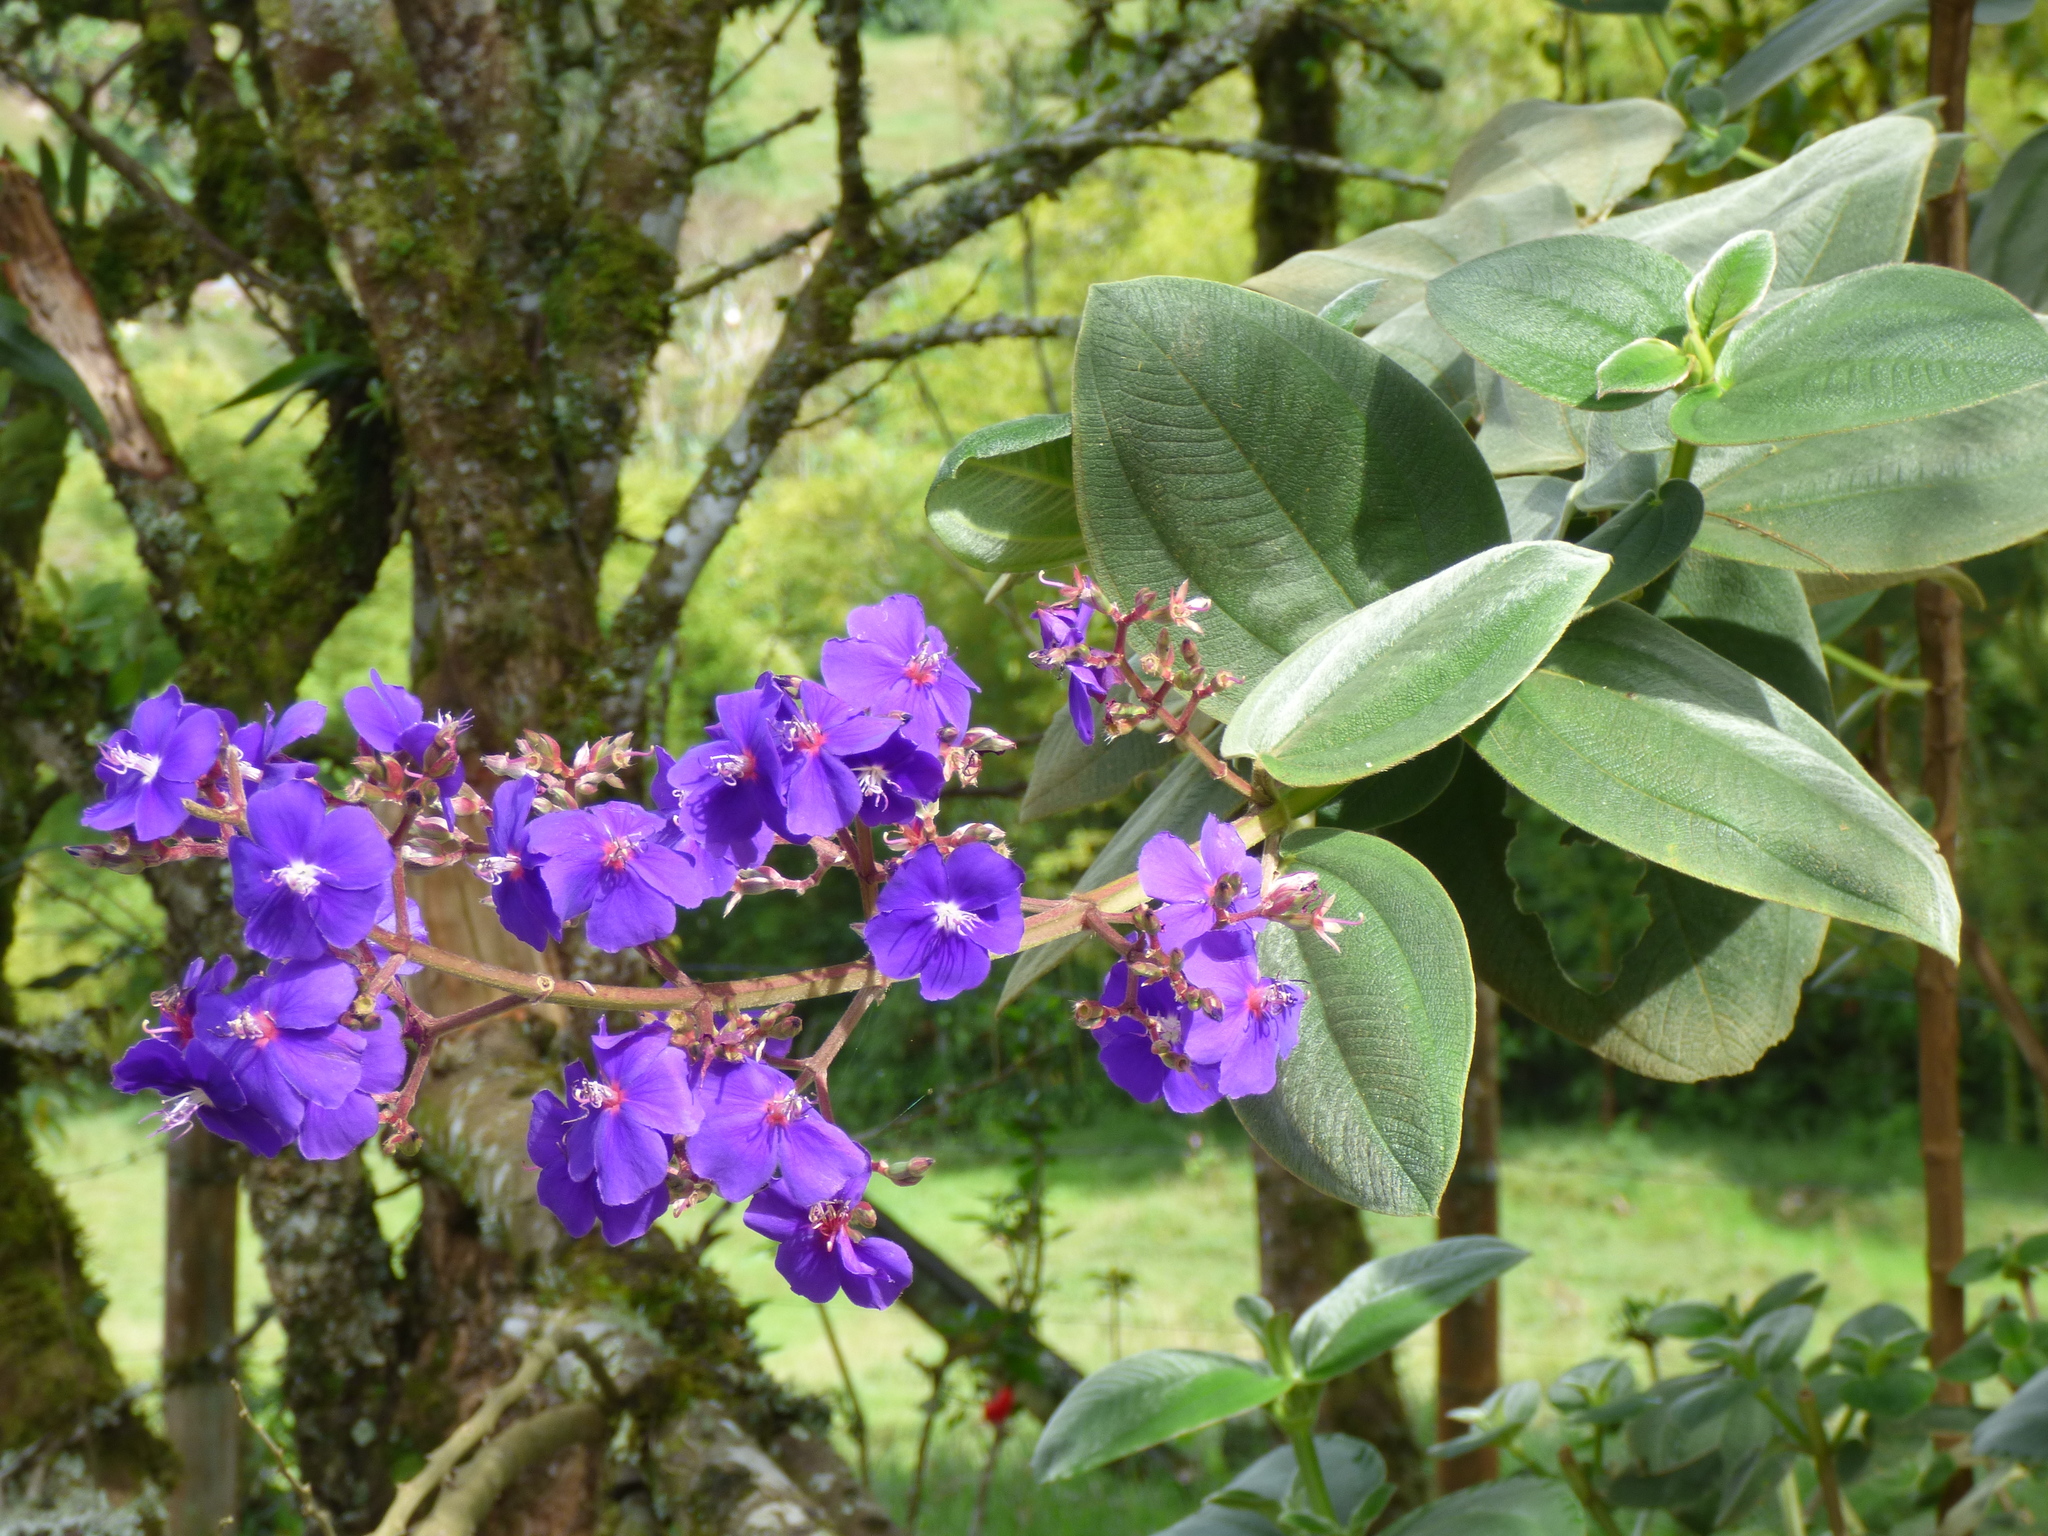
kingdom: Plantae
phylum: Tracheophyta
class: Magnoliopsida
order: Myrtales
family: Melastomataceae
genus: Pleroma
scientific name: Pleroma heteromallum
